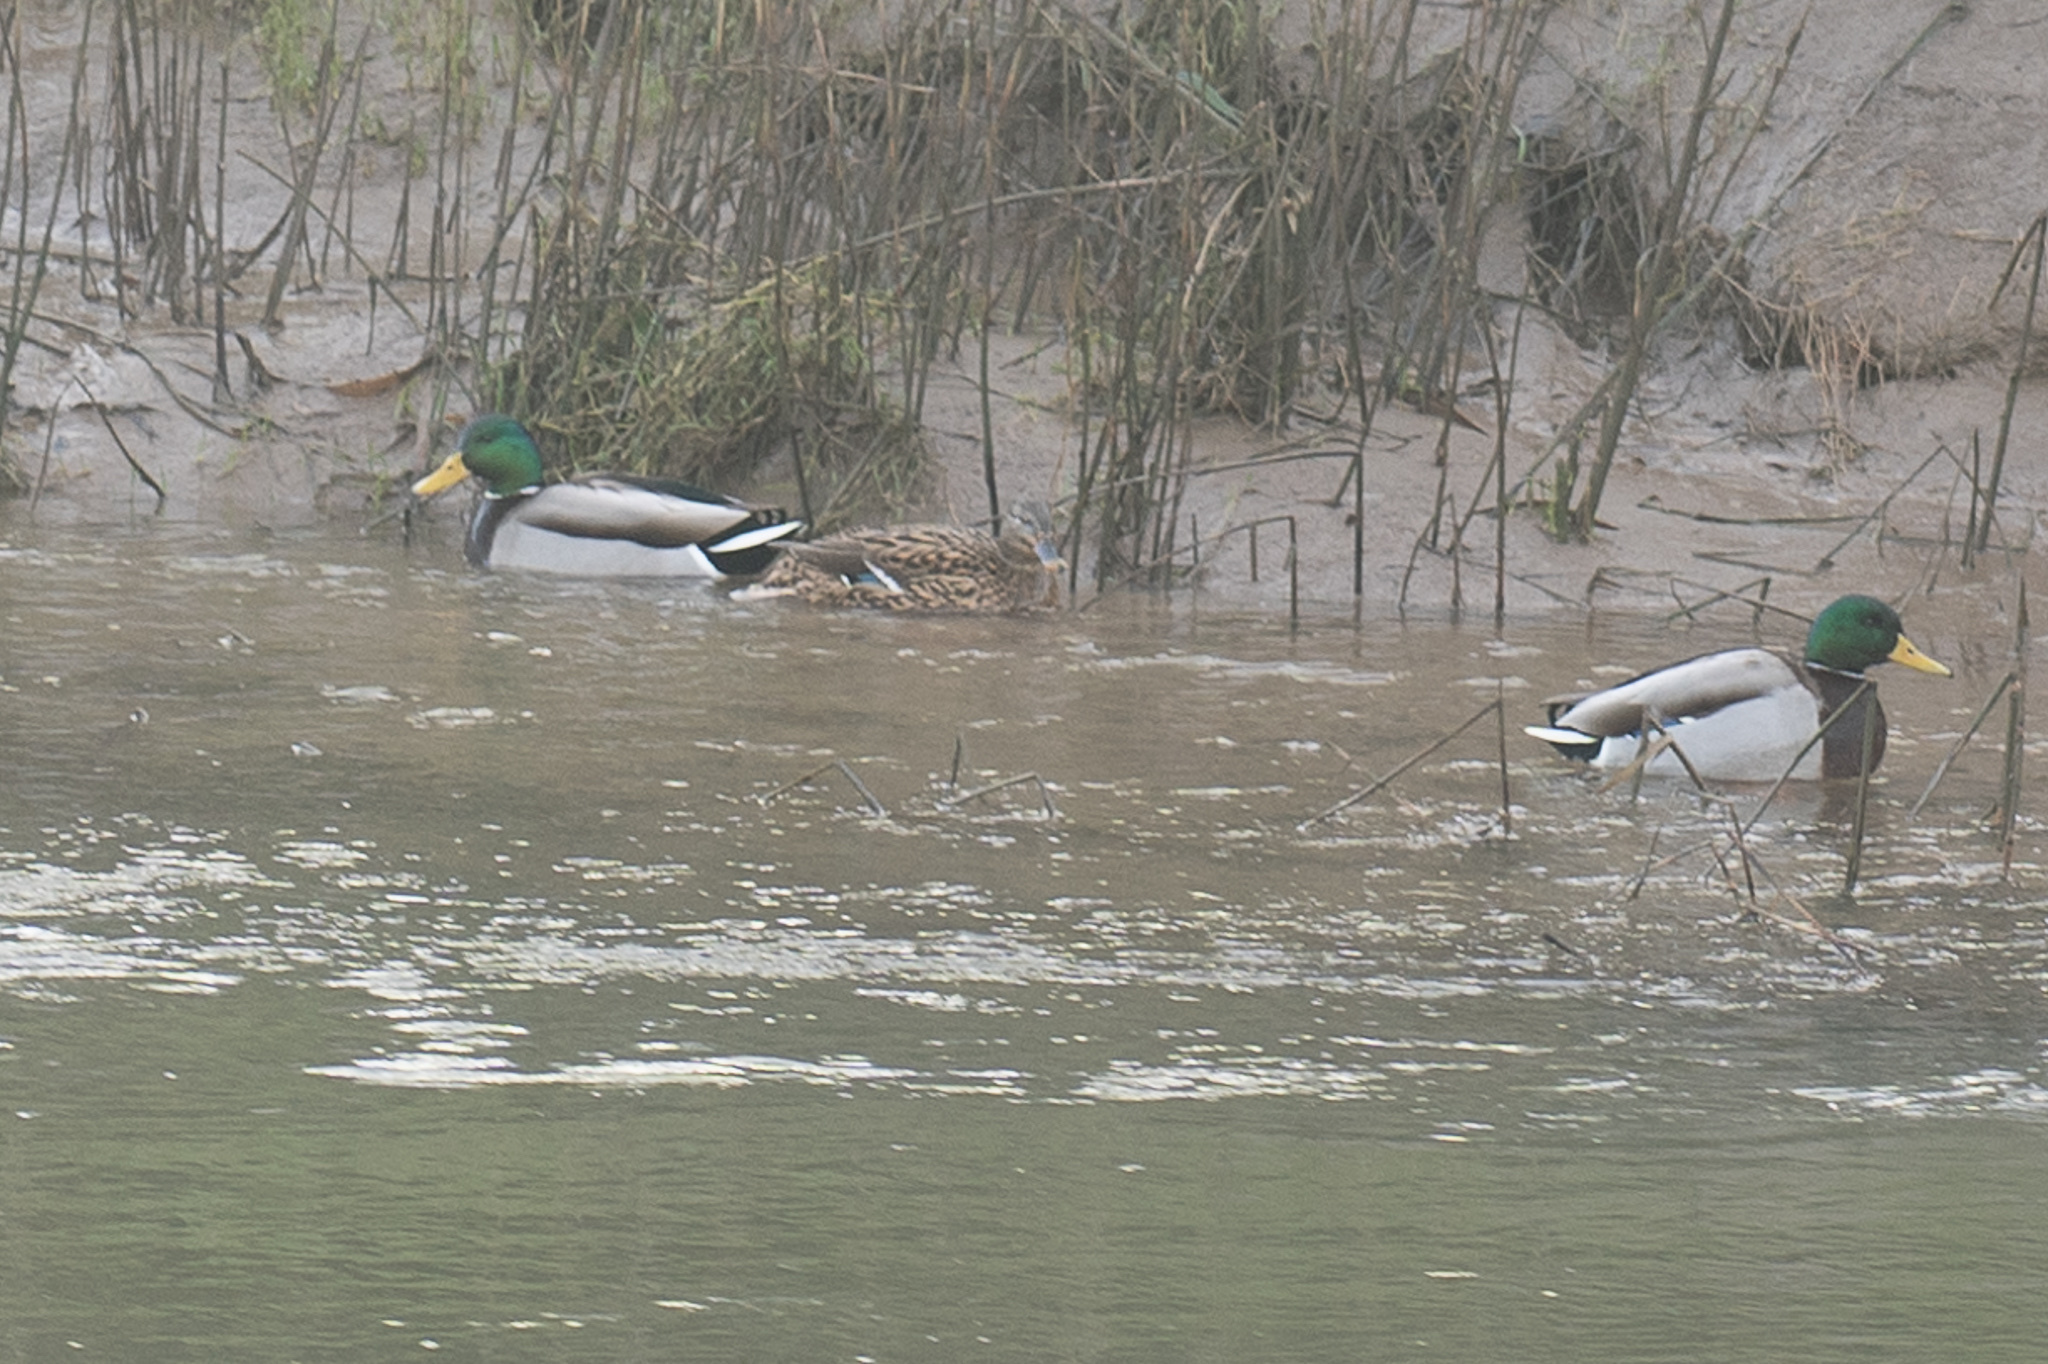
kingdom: Animalia
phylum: Chordata
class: Aves
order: Anseriformes
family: Anatidae
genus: Anas
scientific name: Anas platyrhynchos
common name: Mallard
